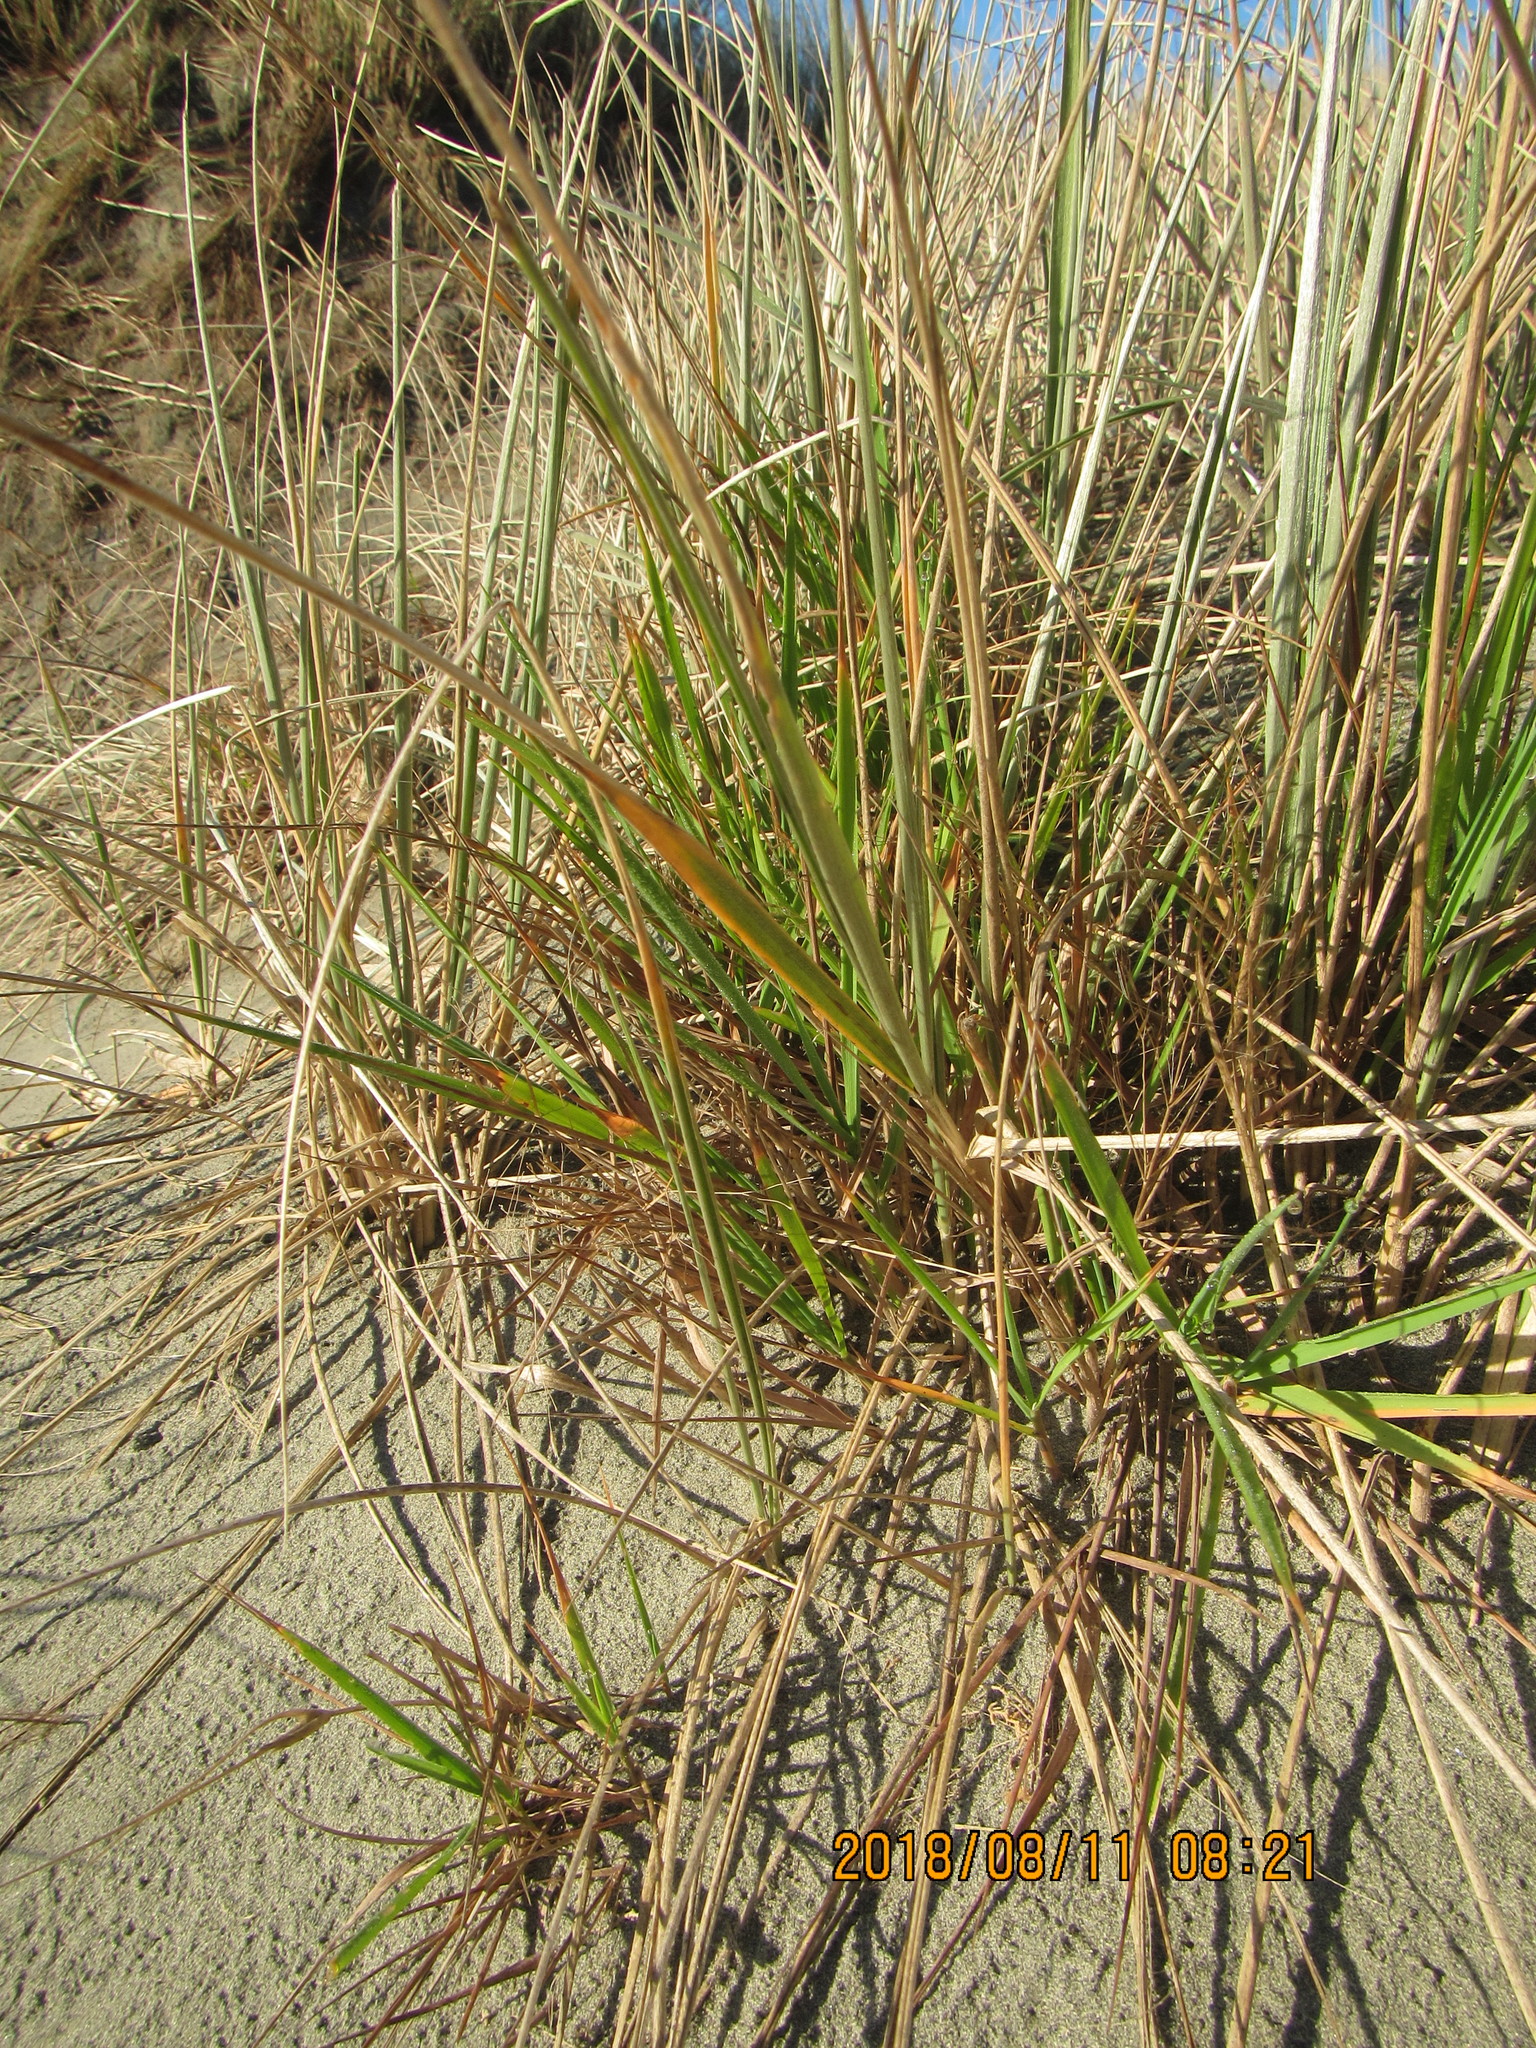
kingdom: Plantae
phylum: Tracheophyta
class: Liliopsida
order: Poales
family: Poaceae
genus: Lachnagrostis
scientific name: Lachnagrostis billardierei
